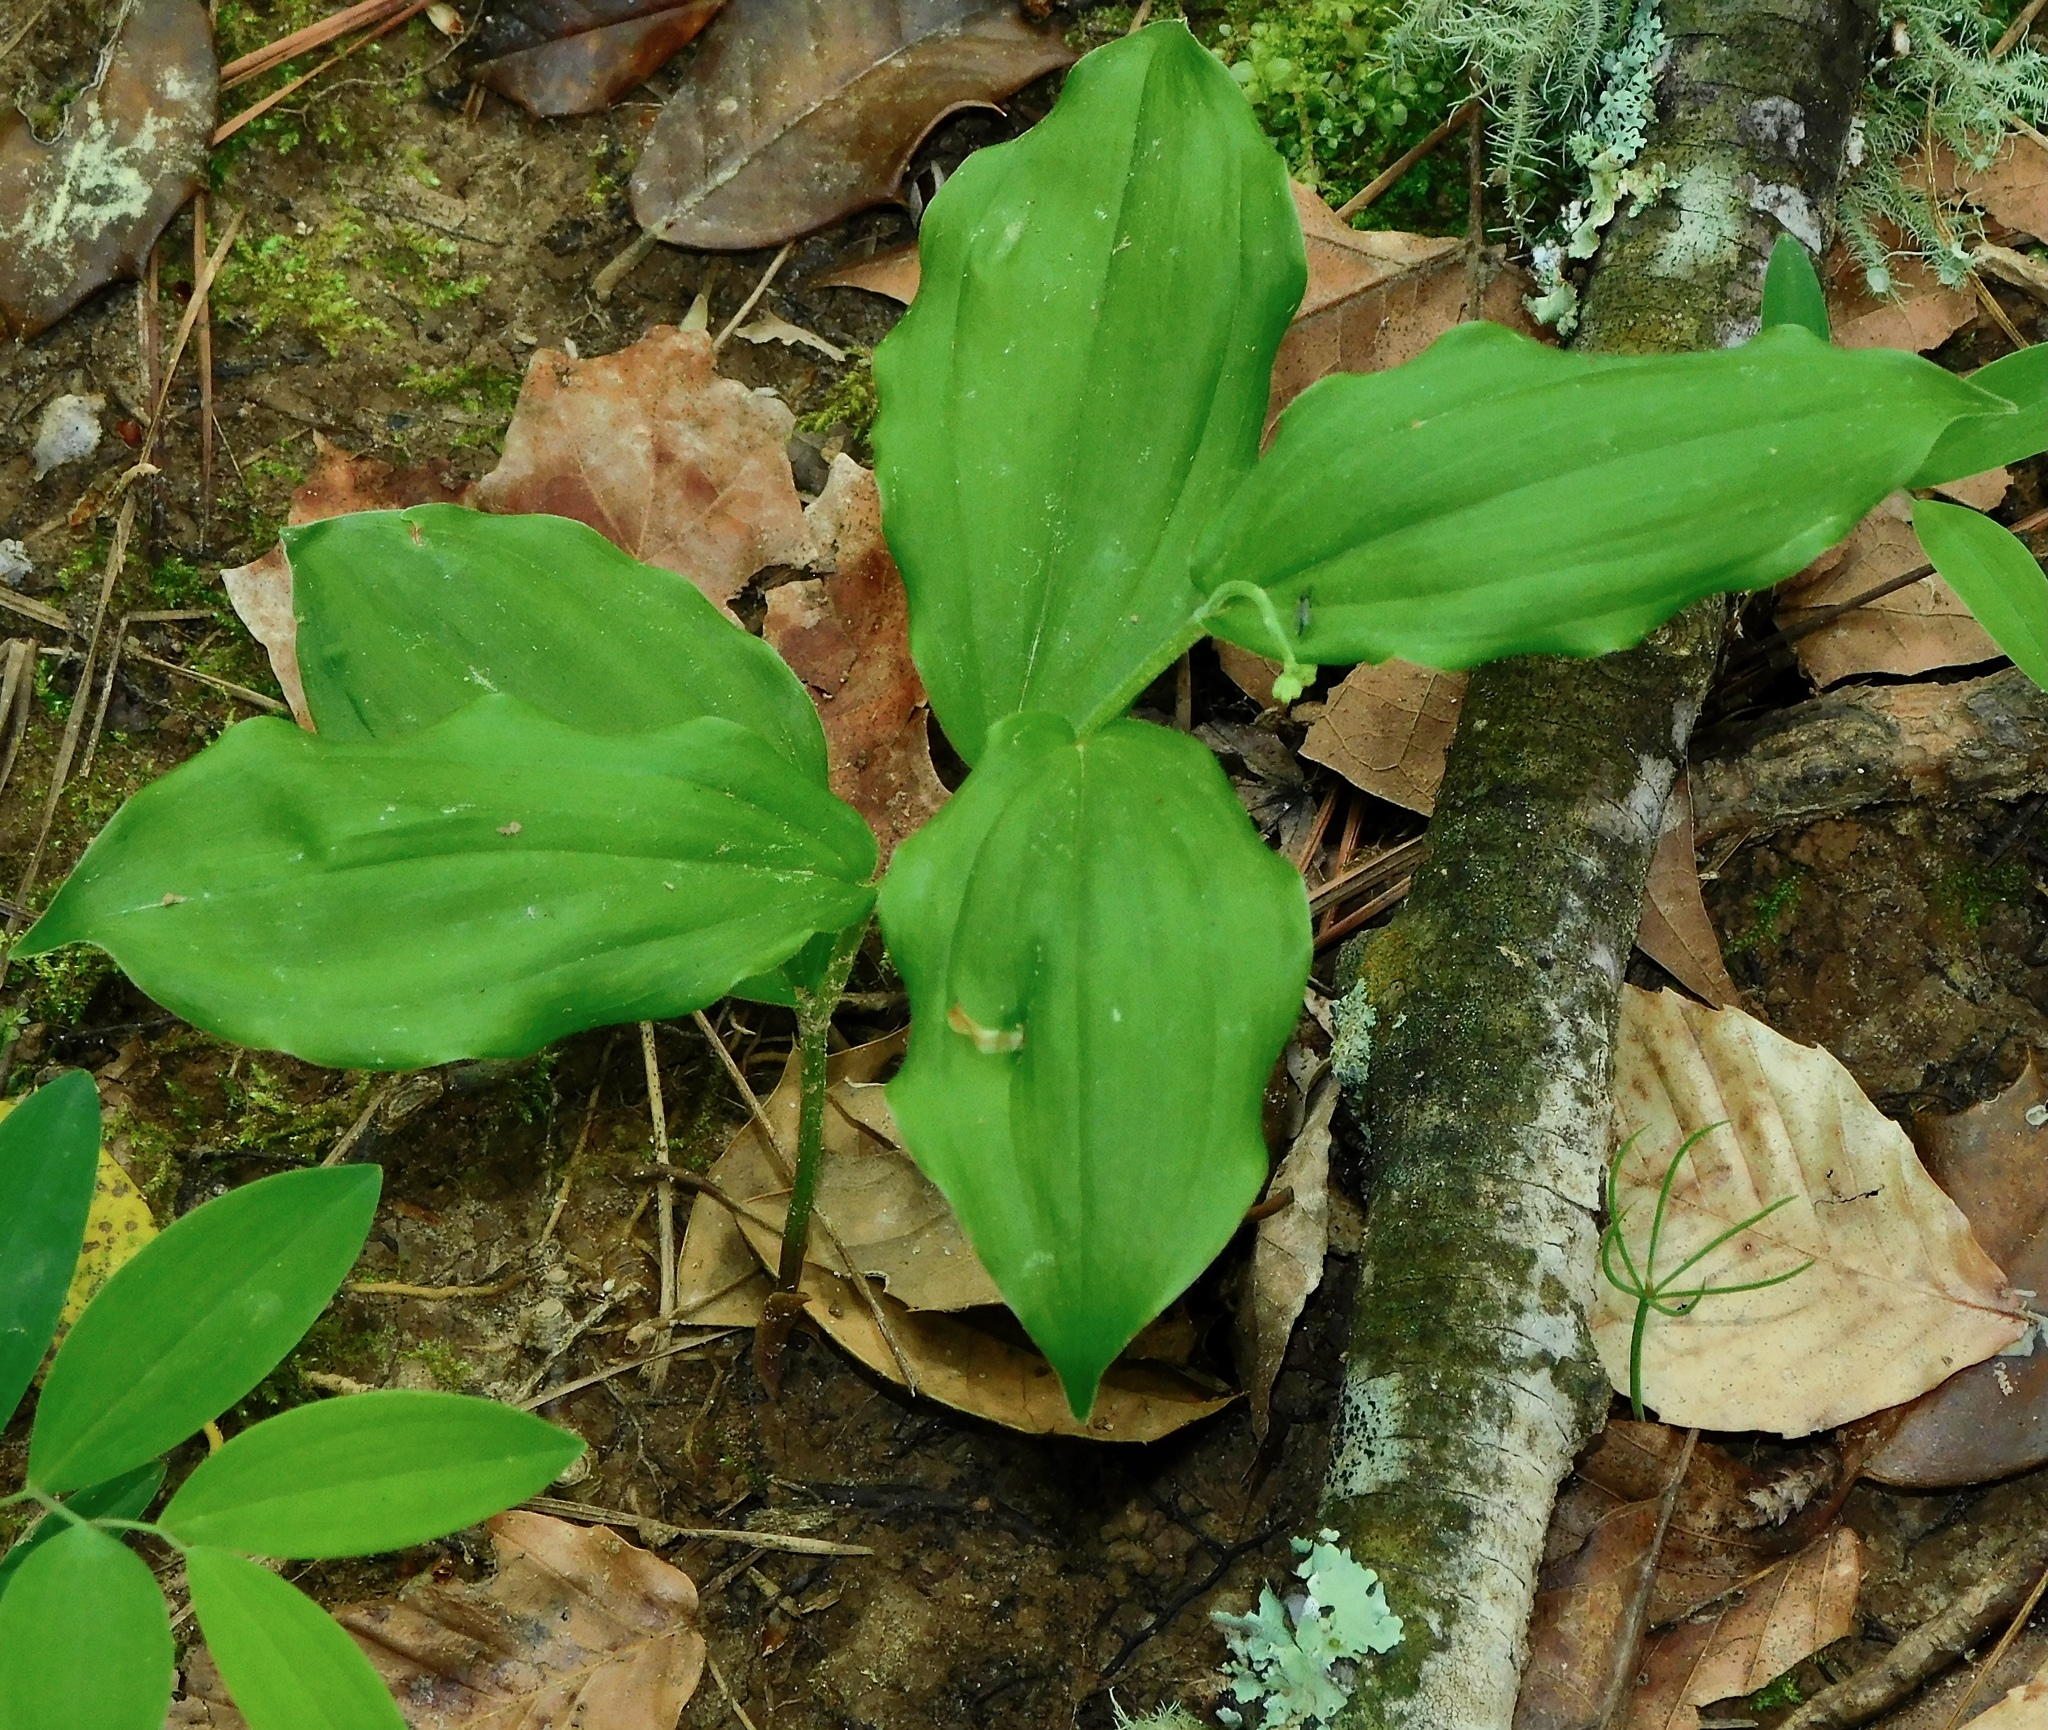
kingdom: Plantae
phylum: Tracheophyta
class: Liliopsida
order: Asparagales
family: Asparagaceae
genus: Maianthemum
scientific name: Maianthemum racemosum
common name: False spikenard
